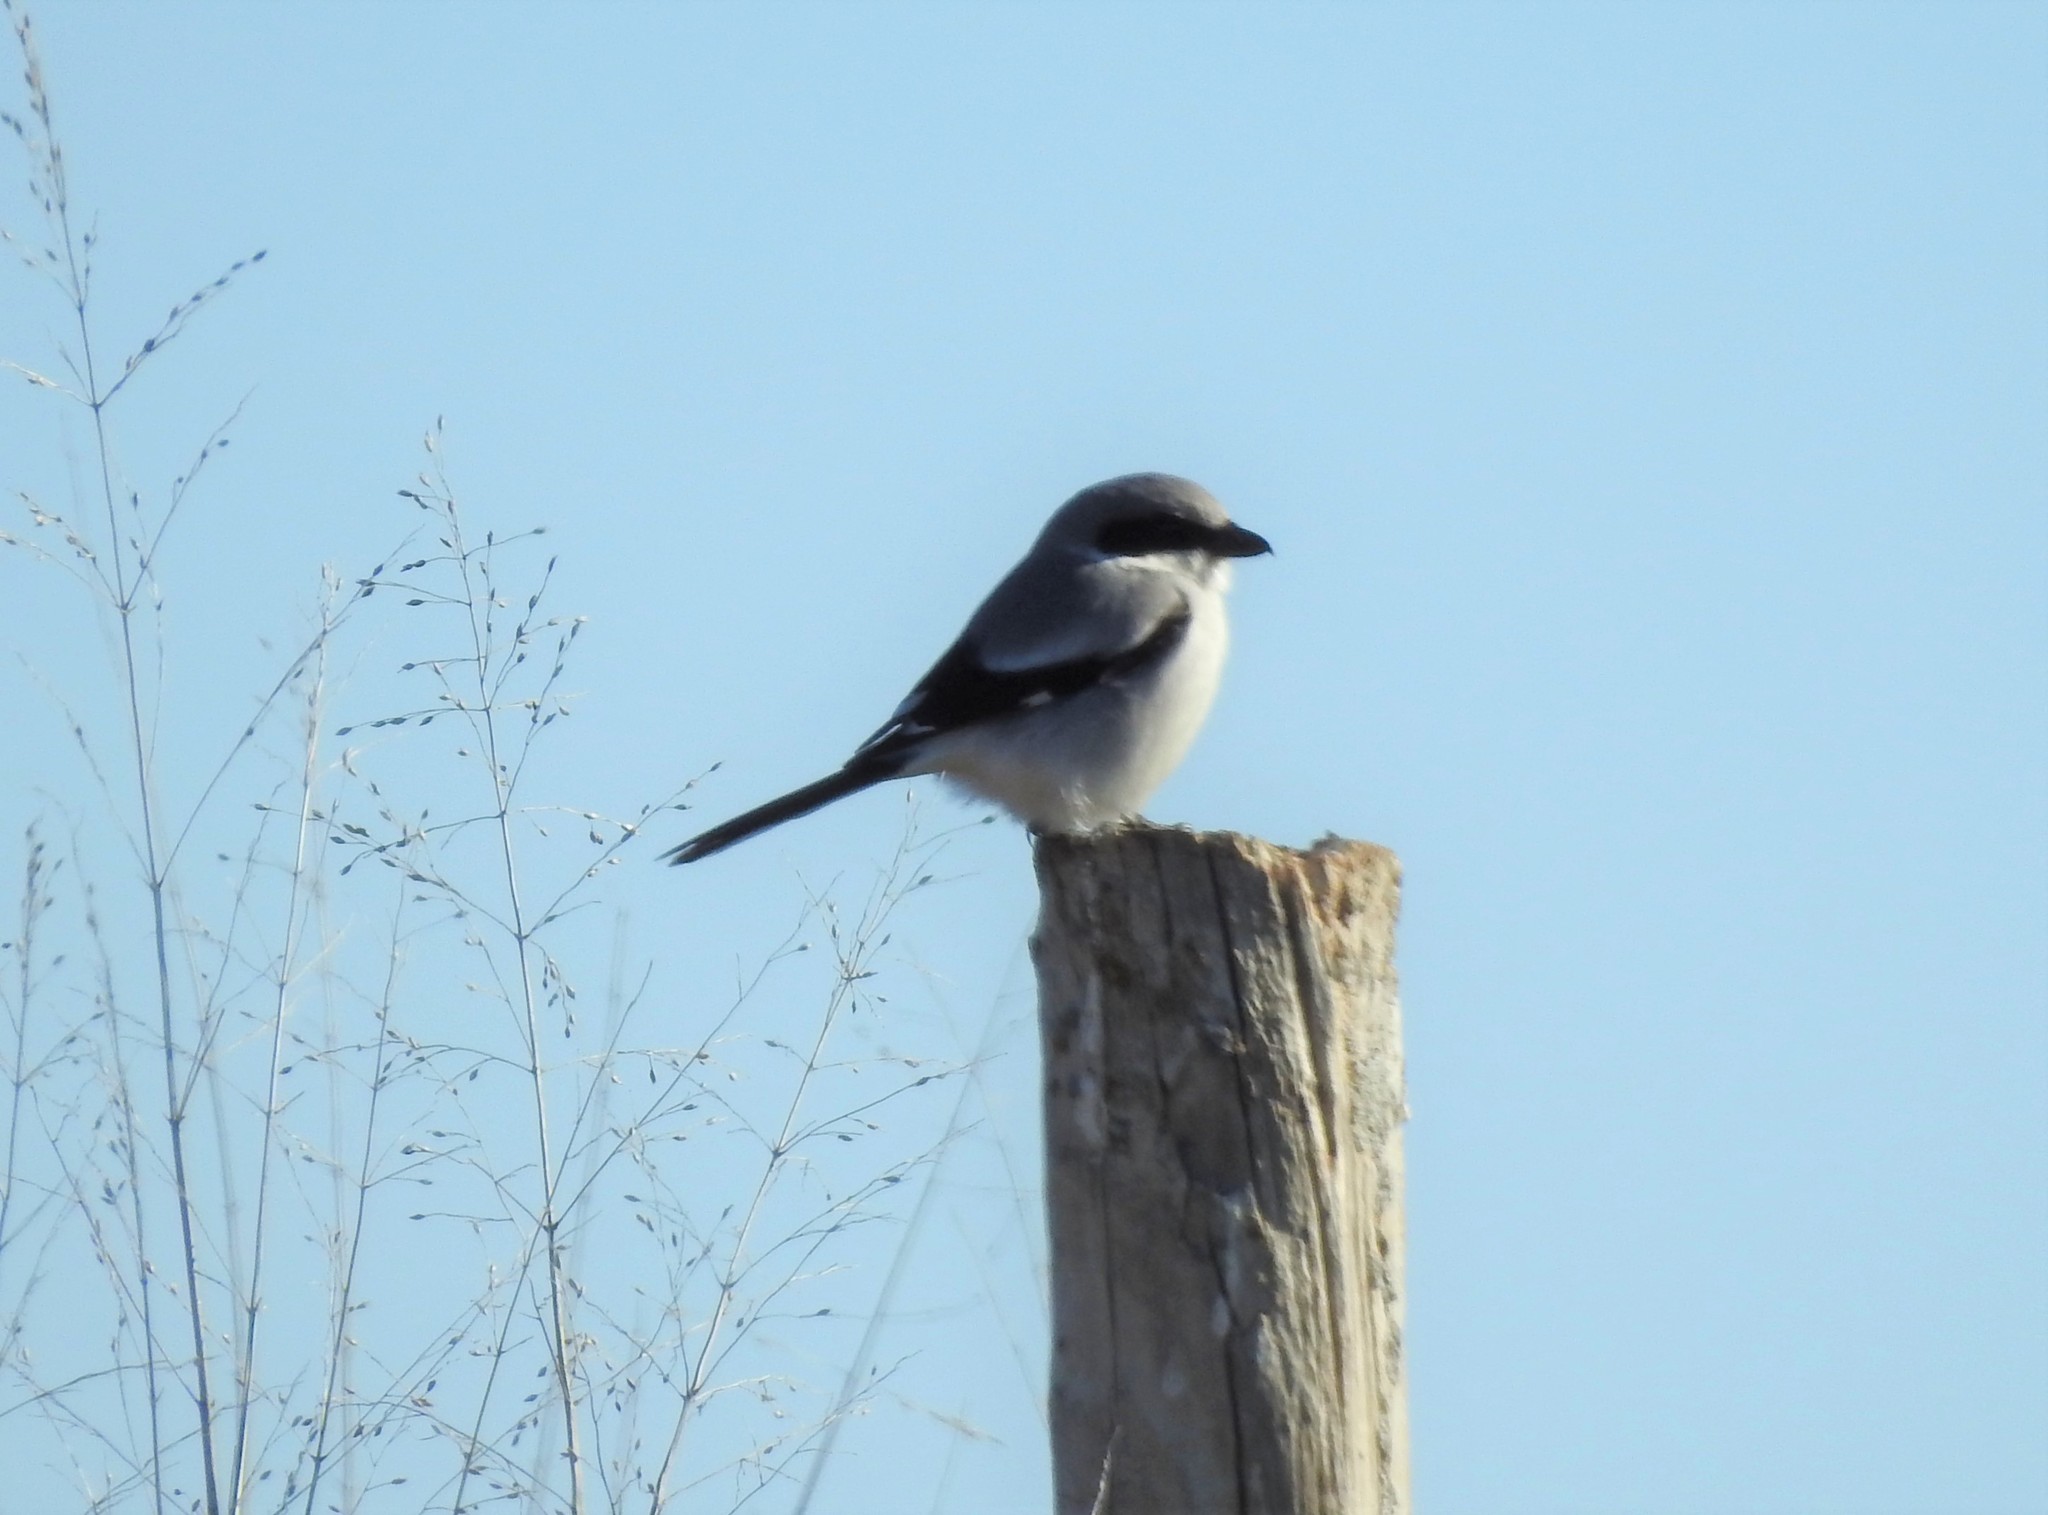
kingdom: Animalia
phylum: Chordata
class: Aves
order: Passeriformes
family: Laniidae
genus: Lanius
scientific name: Lanius ludovicianus
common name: Loggerhead shrike
